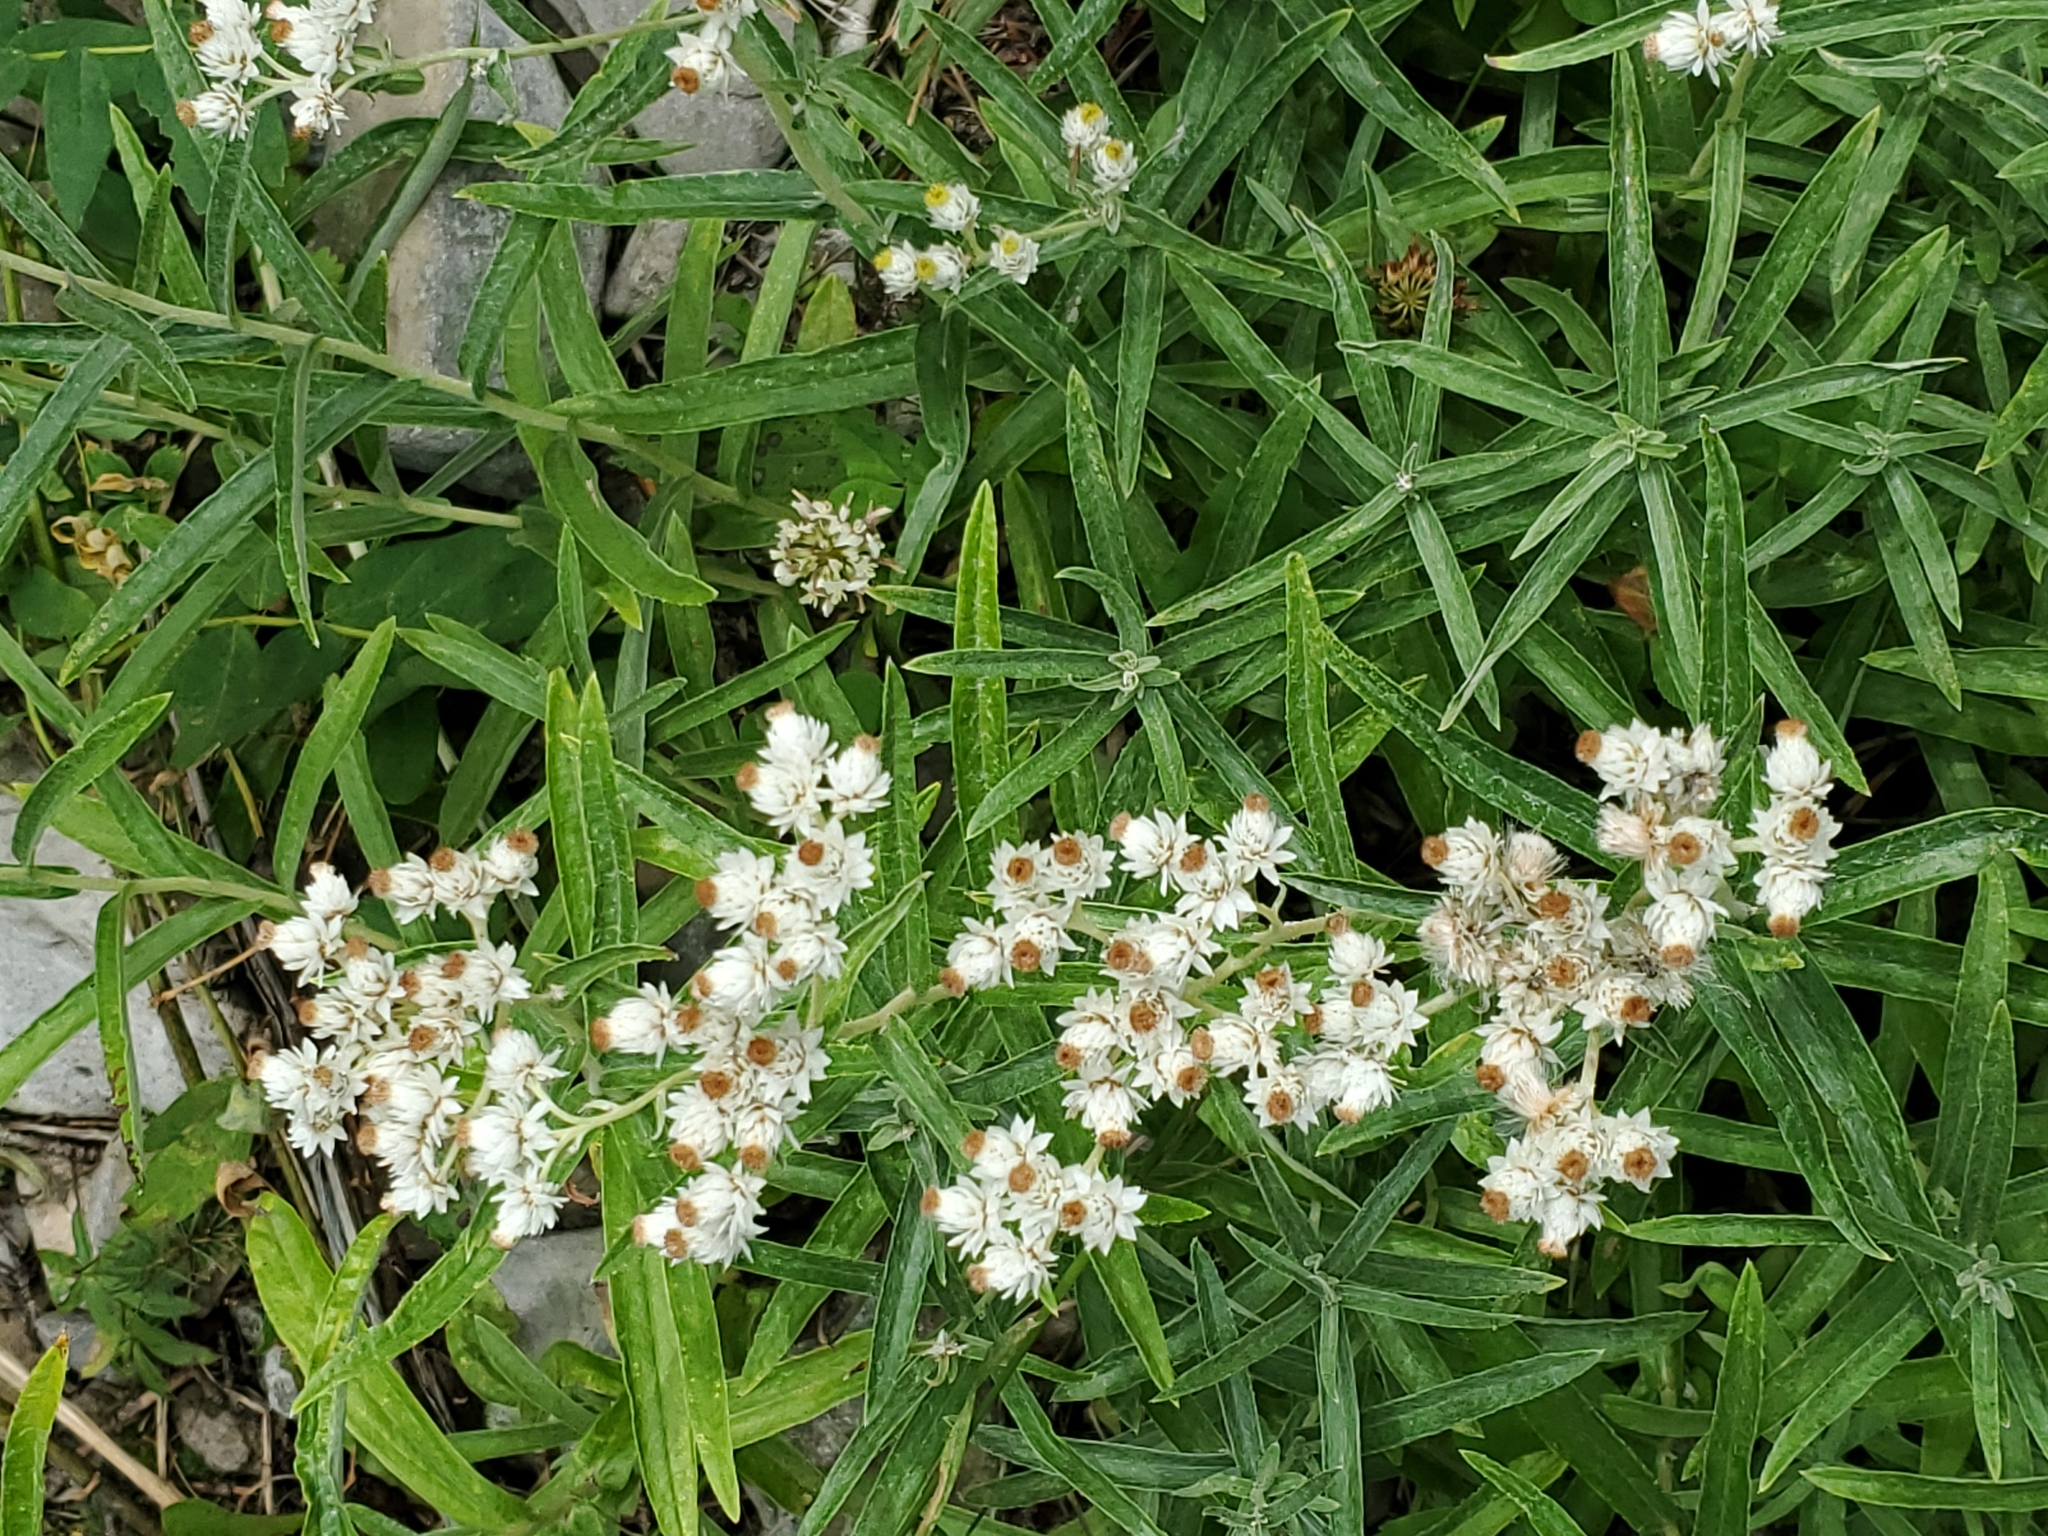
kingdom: Plantae
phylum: Tracheophyta
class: Magnoliopsida
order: Asterales
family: Asteraceae
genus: Anaphalis
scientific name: Anaphalis margaritacea
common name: Pearly everlasting
